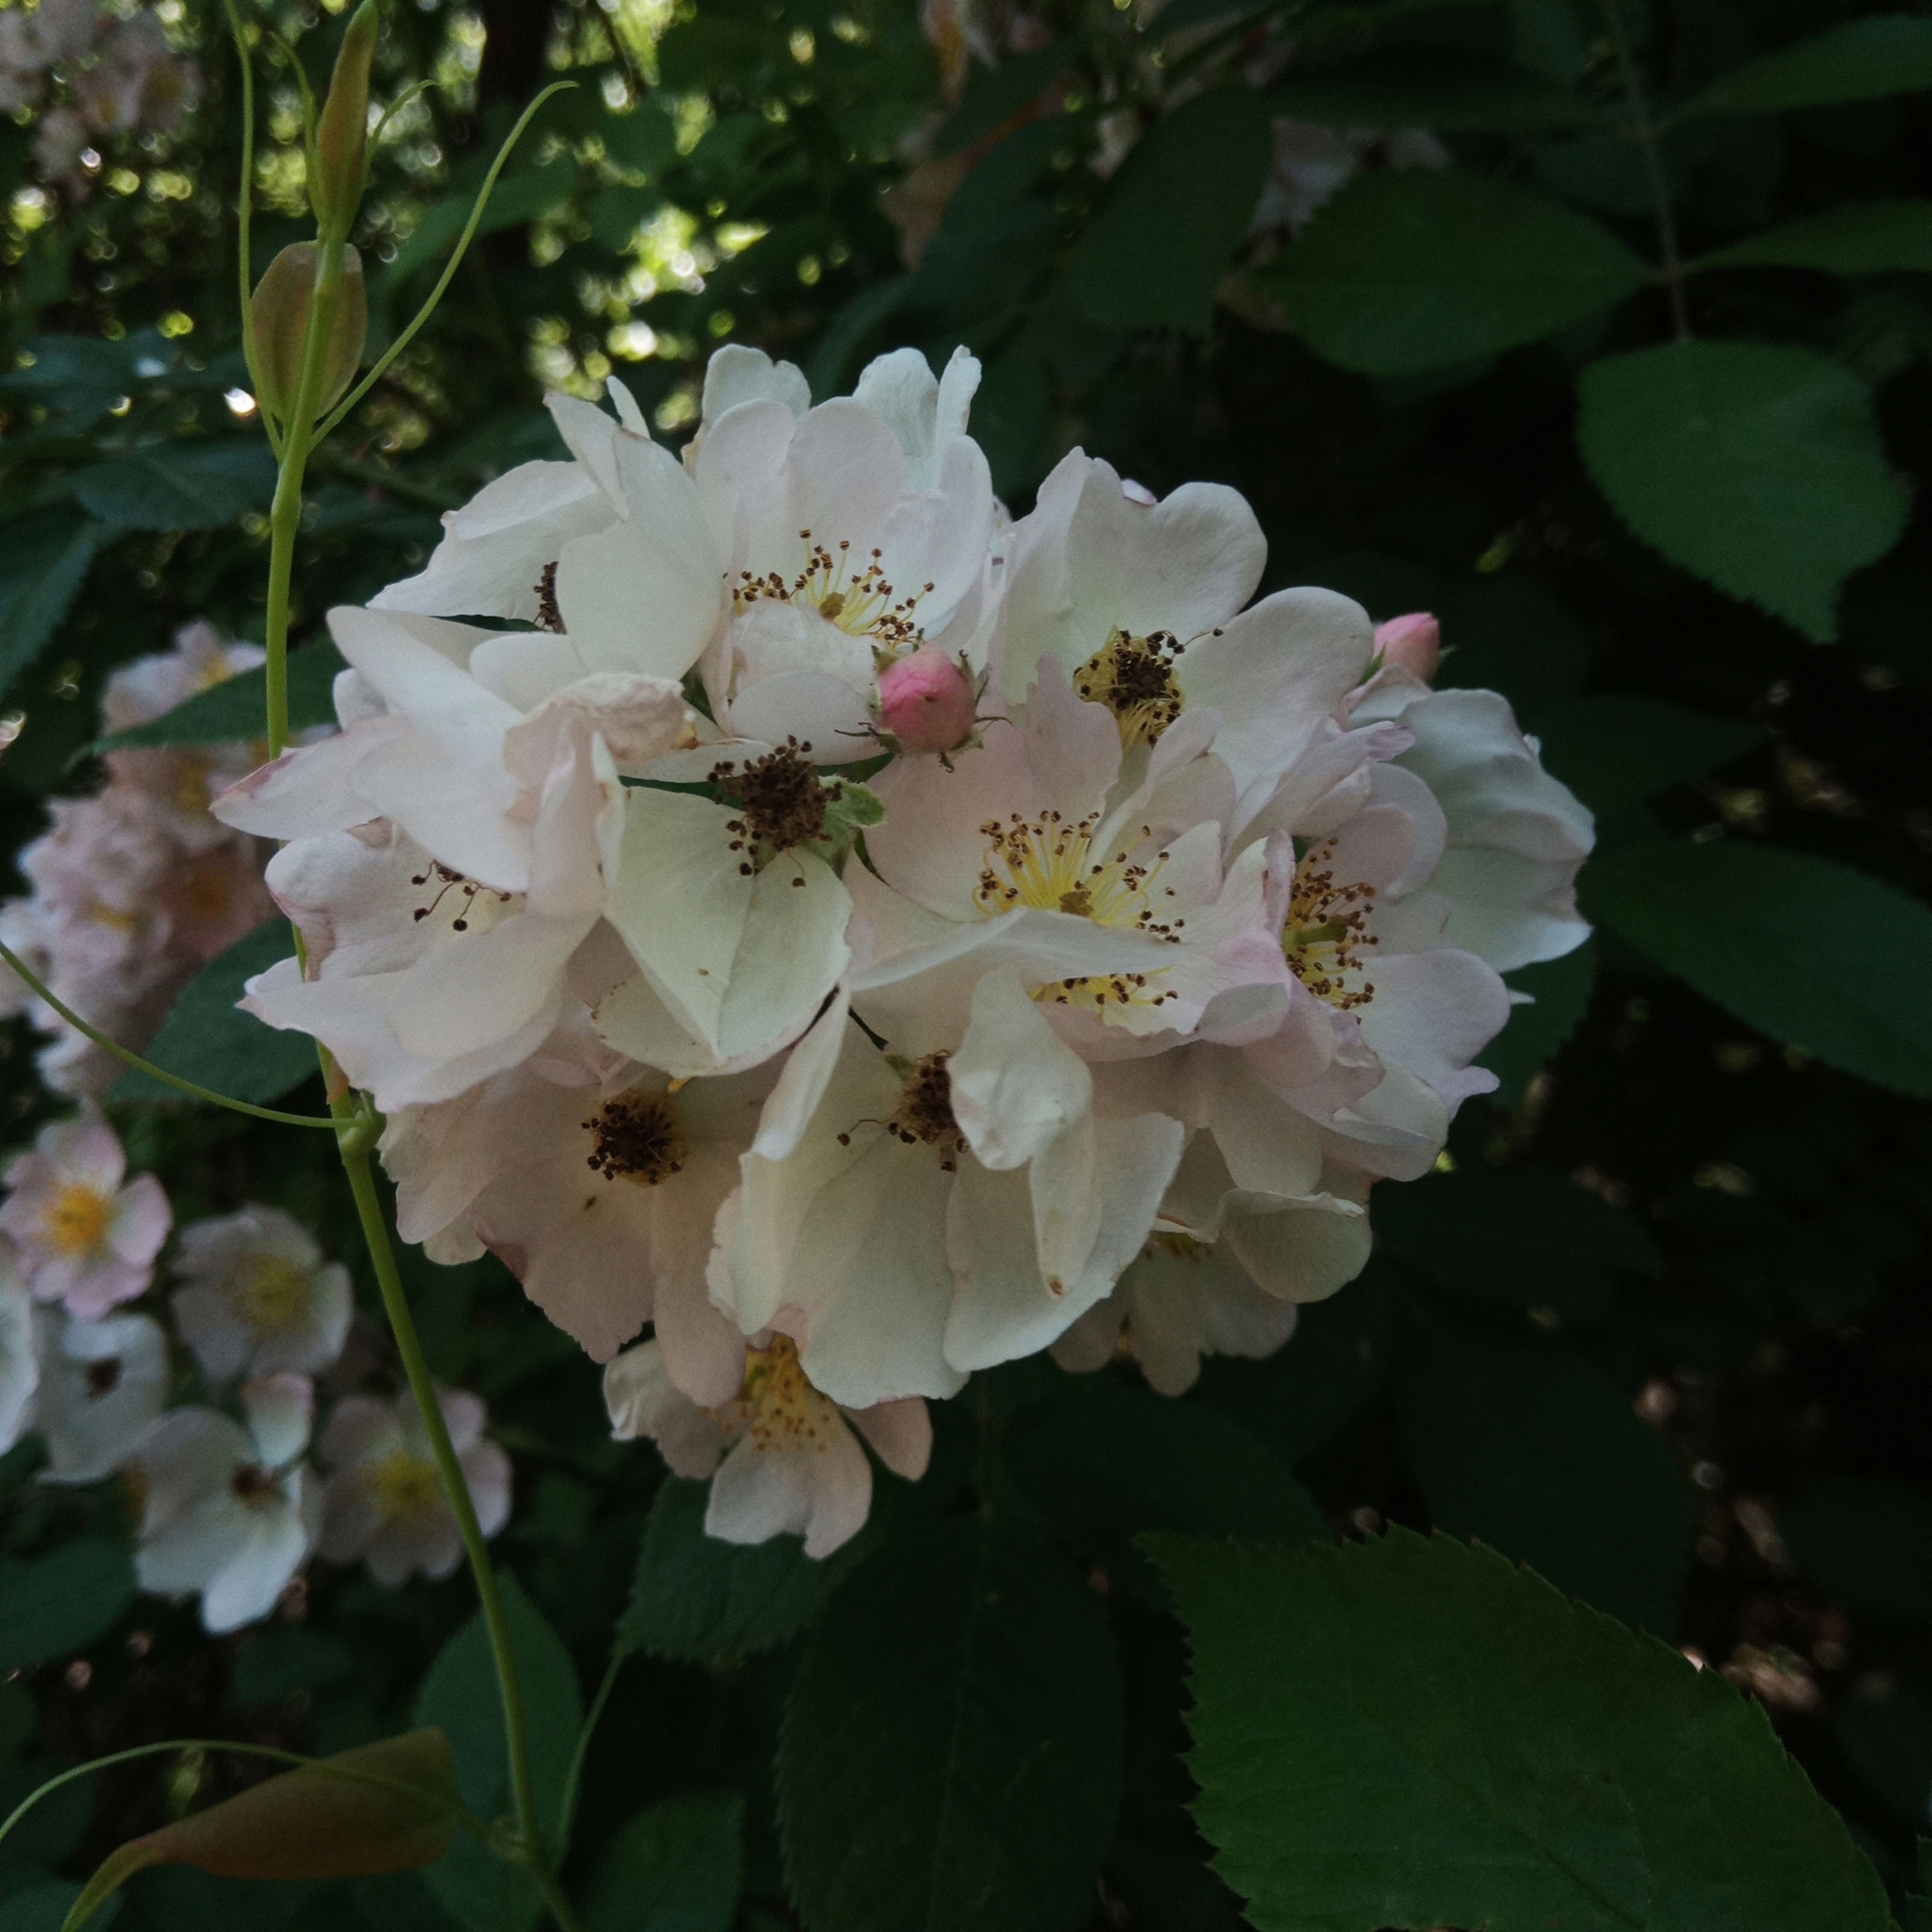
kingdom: Plantae
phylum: Tracheophyta
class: Magnoliopsida
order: Rosales
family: Rosaceae
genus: Rosa
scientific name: Rosa multiflora
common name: Multiflora rose
